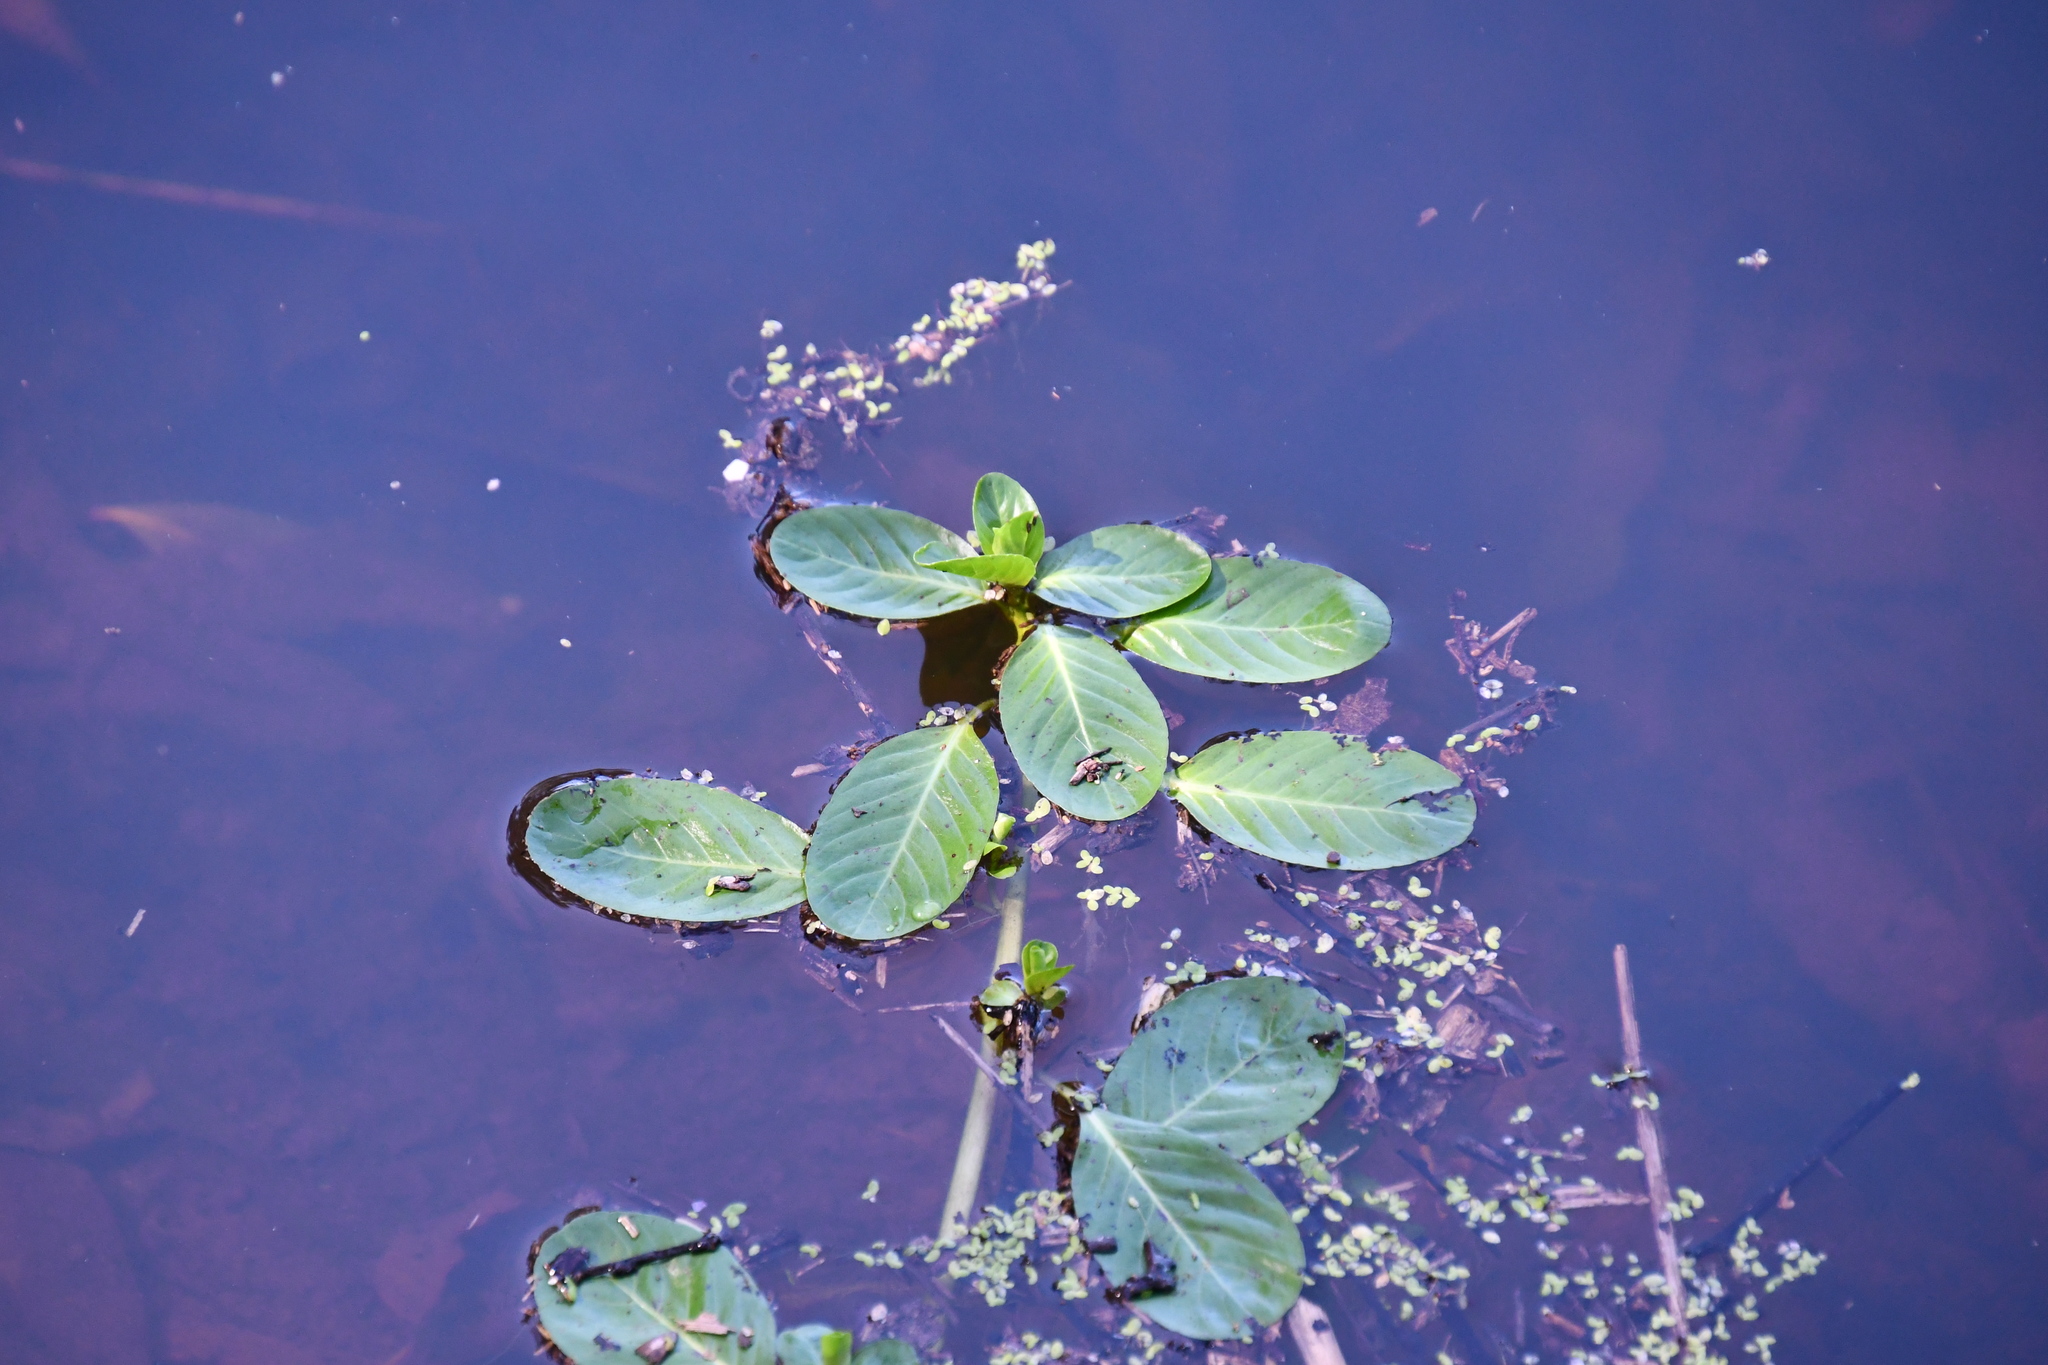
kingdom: Plantae
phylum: Tracheophyta
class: Magnoliopsida
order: Myrtales
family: Onagraceae
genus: Ludwigia
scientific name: Ludwigia peploides
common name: Floating primrose-willow
